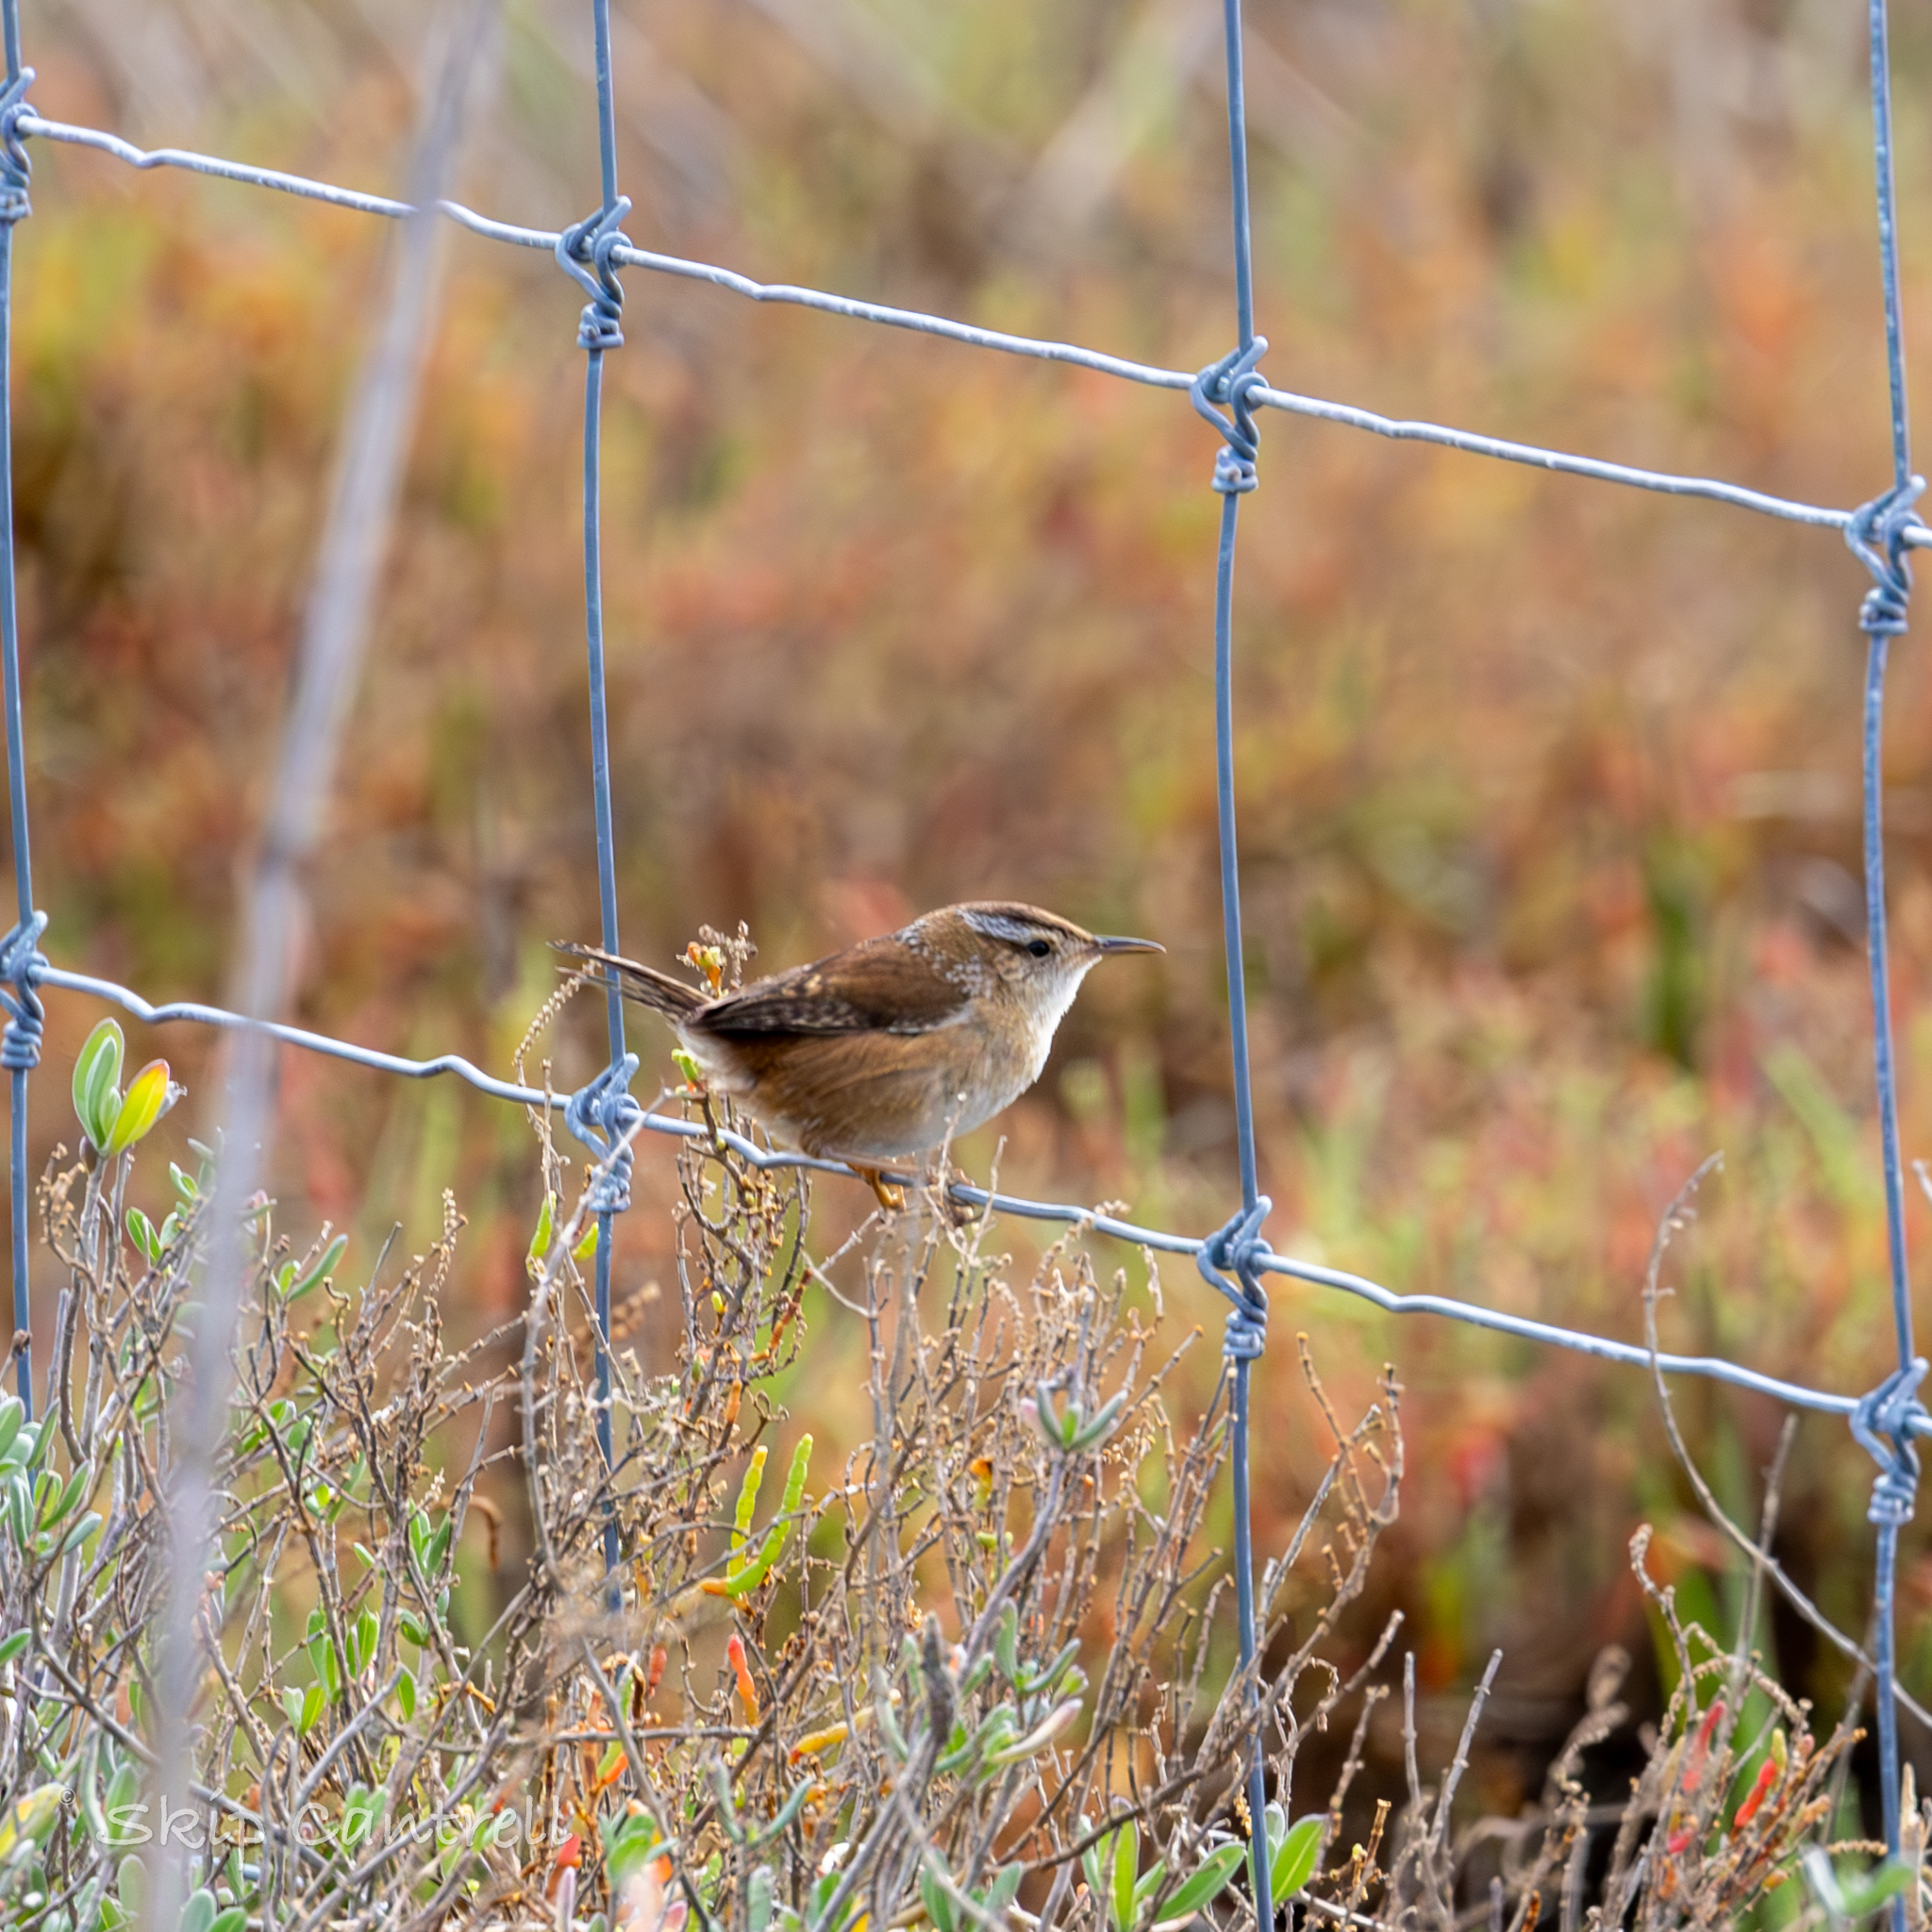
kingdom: Animalia
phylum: Chordata
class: Aves
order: Passeriformes
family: Troglodytidae
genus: Cistothorus
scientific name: Cistothorus palustris
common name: Marsh wren
